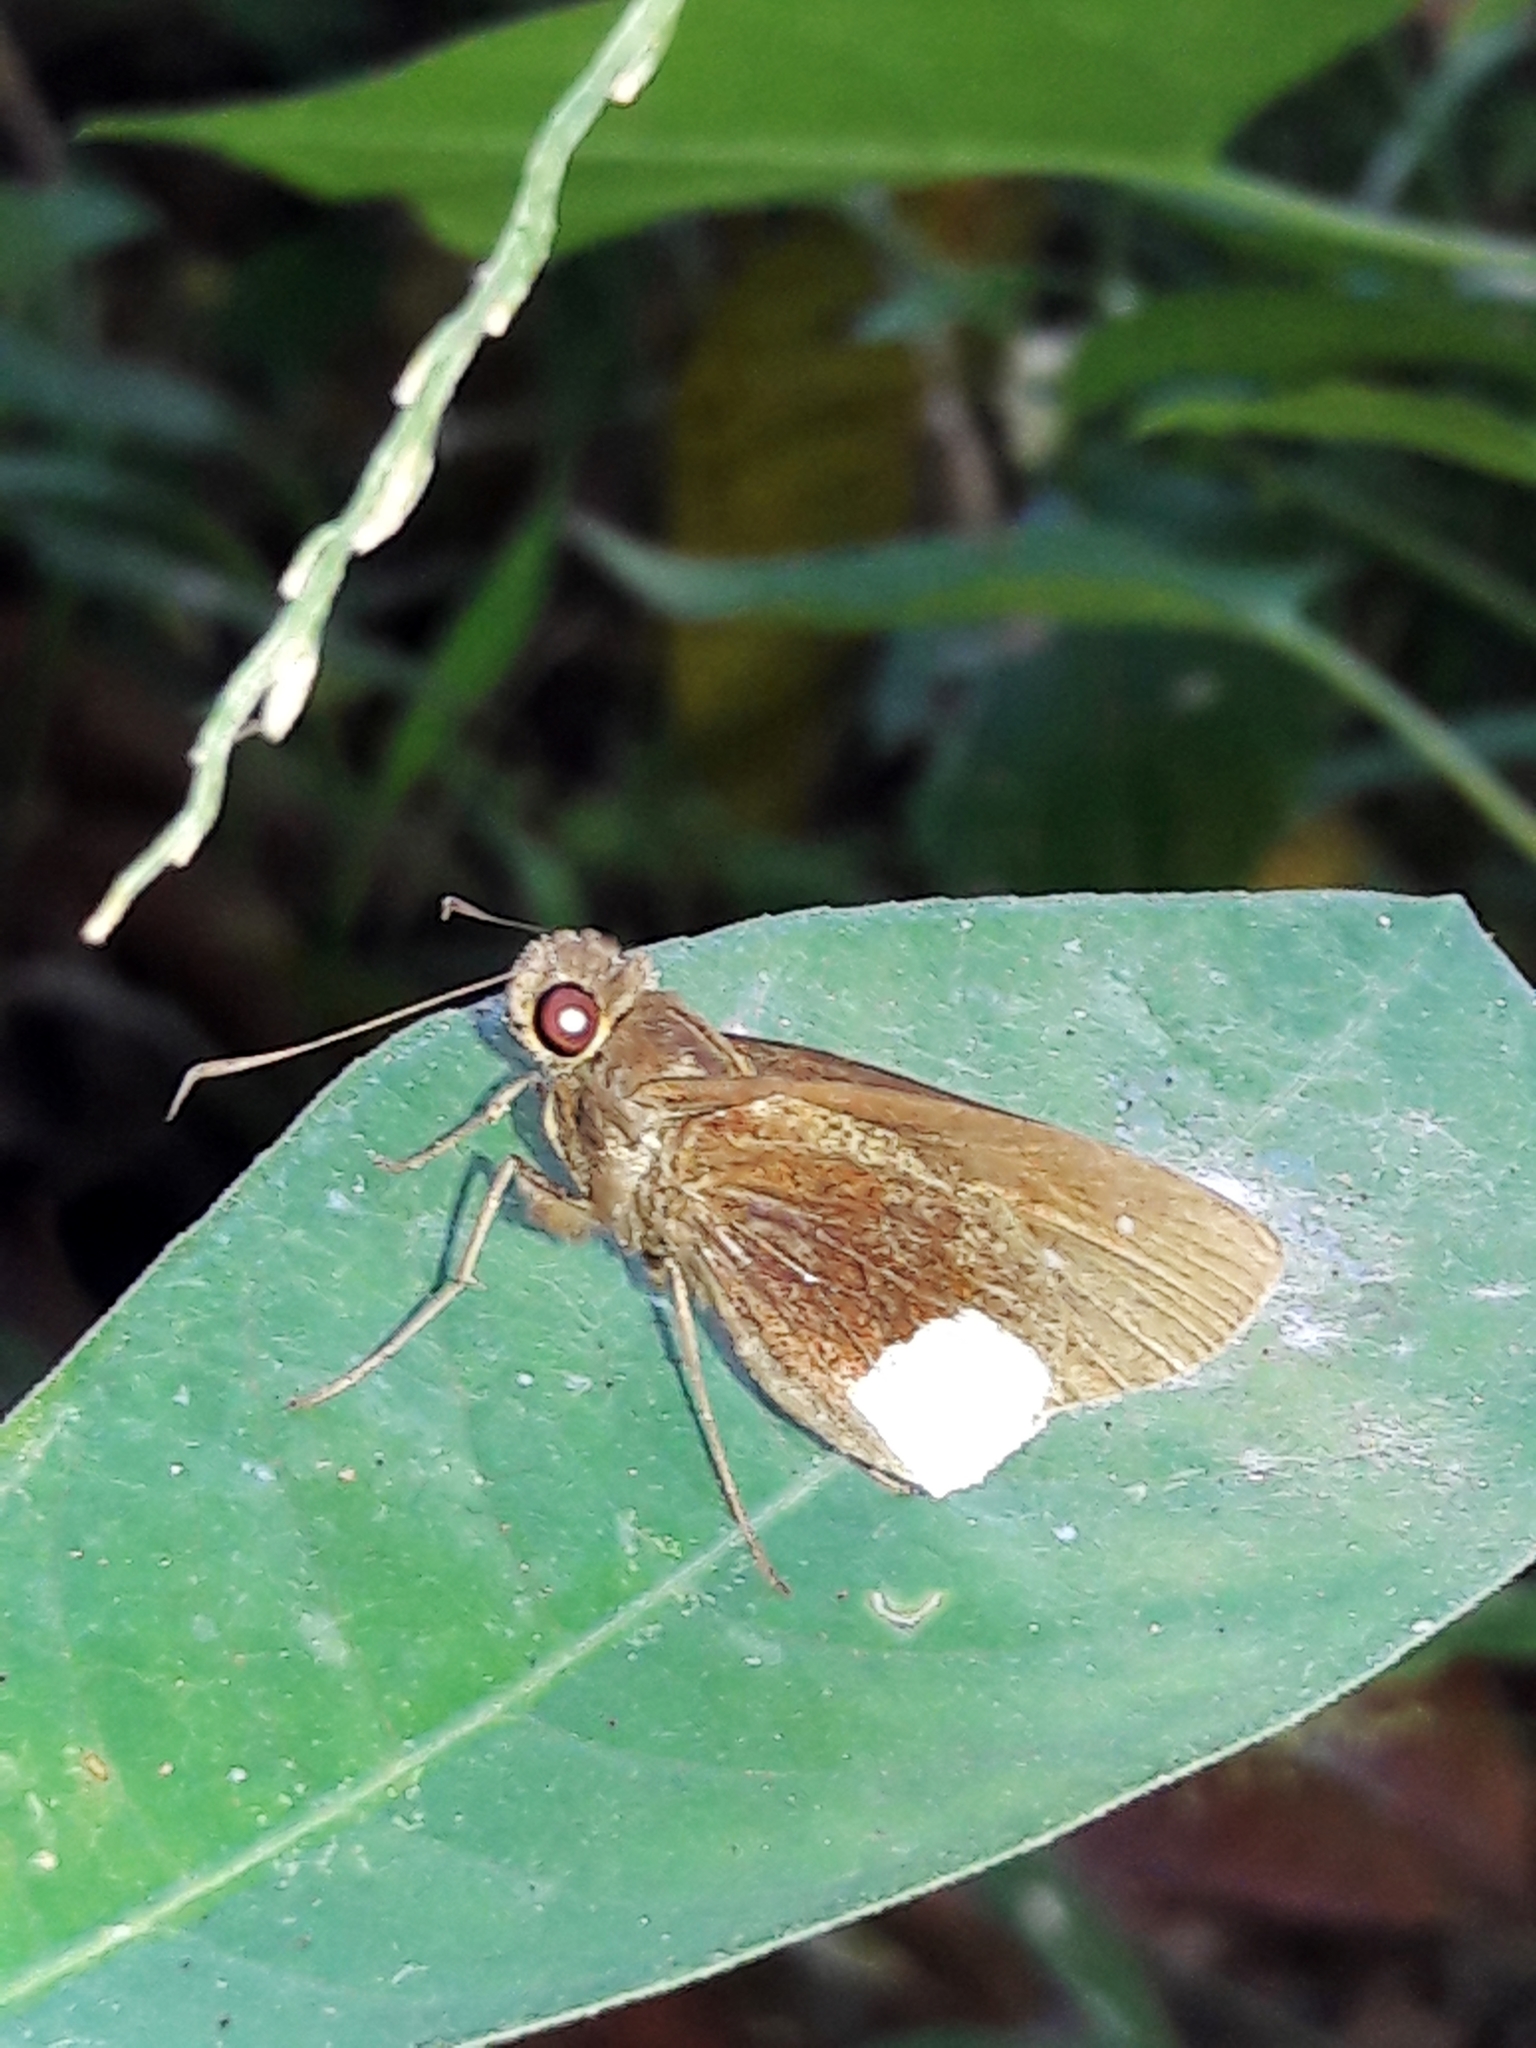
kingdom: Animalia
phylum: Arthropoda
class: Insecta
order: Lepidoptera
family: Hesperiidae
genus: Cobalus
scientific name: Cobalus virbius
